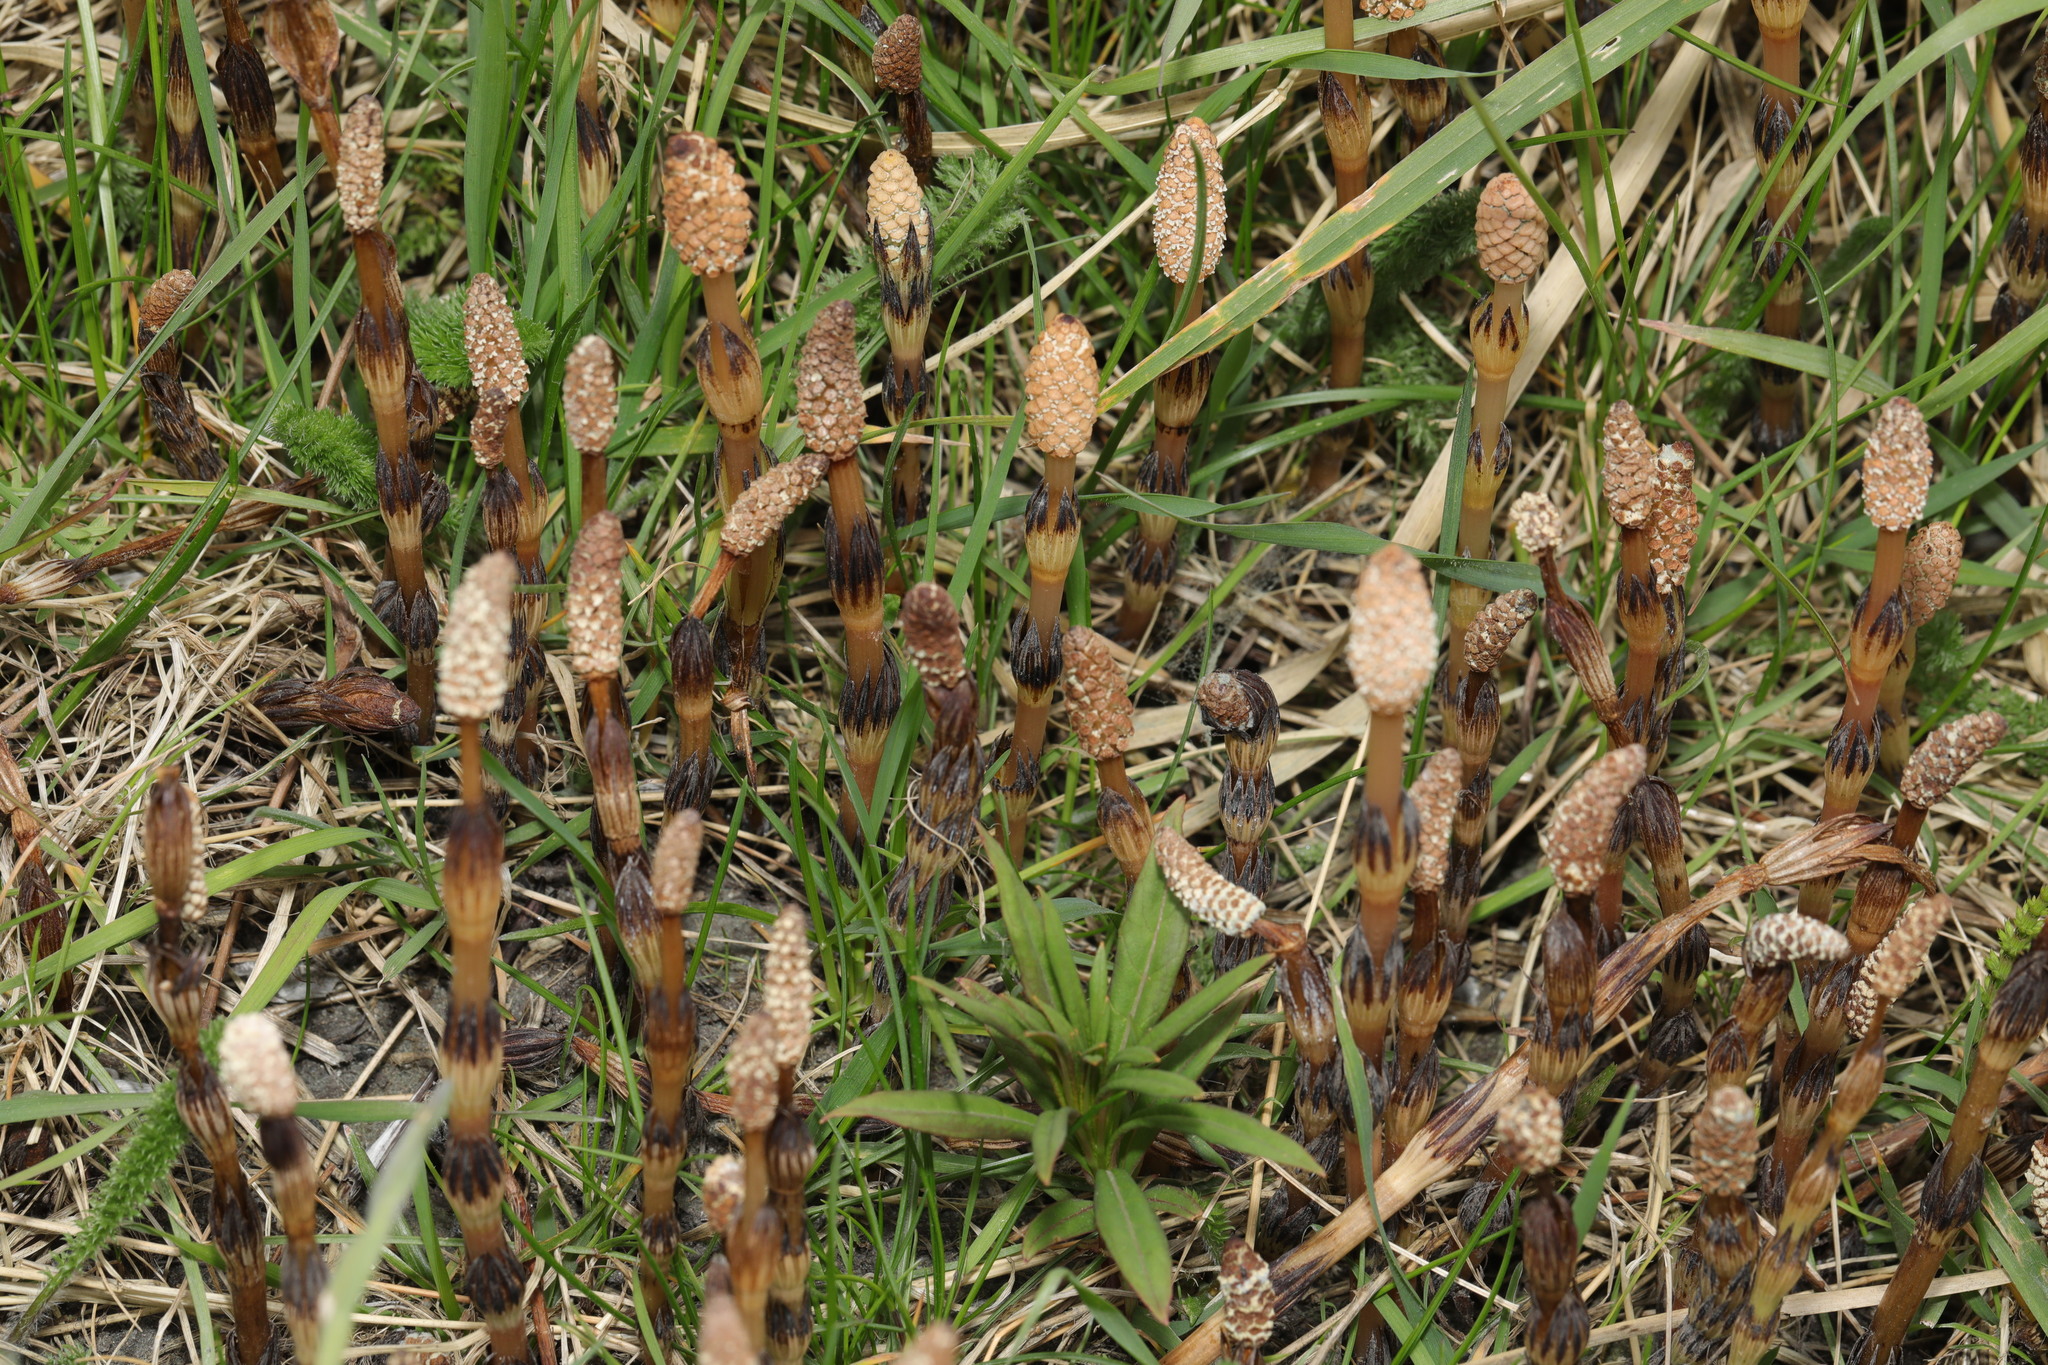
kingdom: Plantae
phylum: Tracheophyta
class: Polypodiopsida
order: Equisetales
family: Equisetaceae
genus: Equisetum
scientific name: Equisetum arvense
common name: Field horsetail
